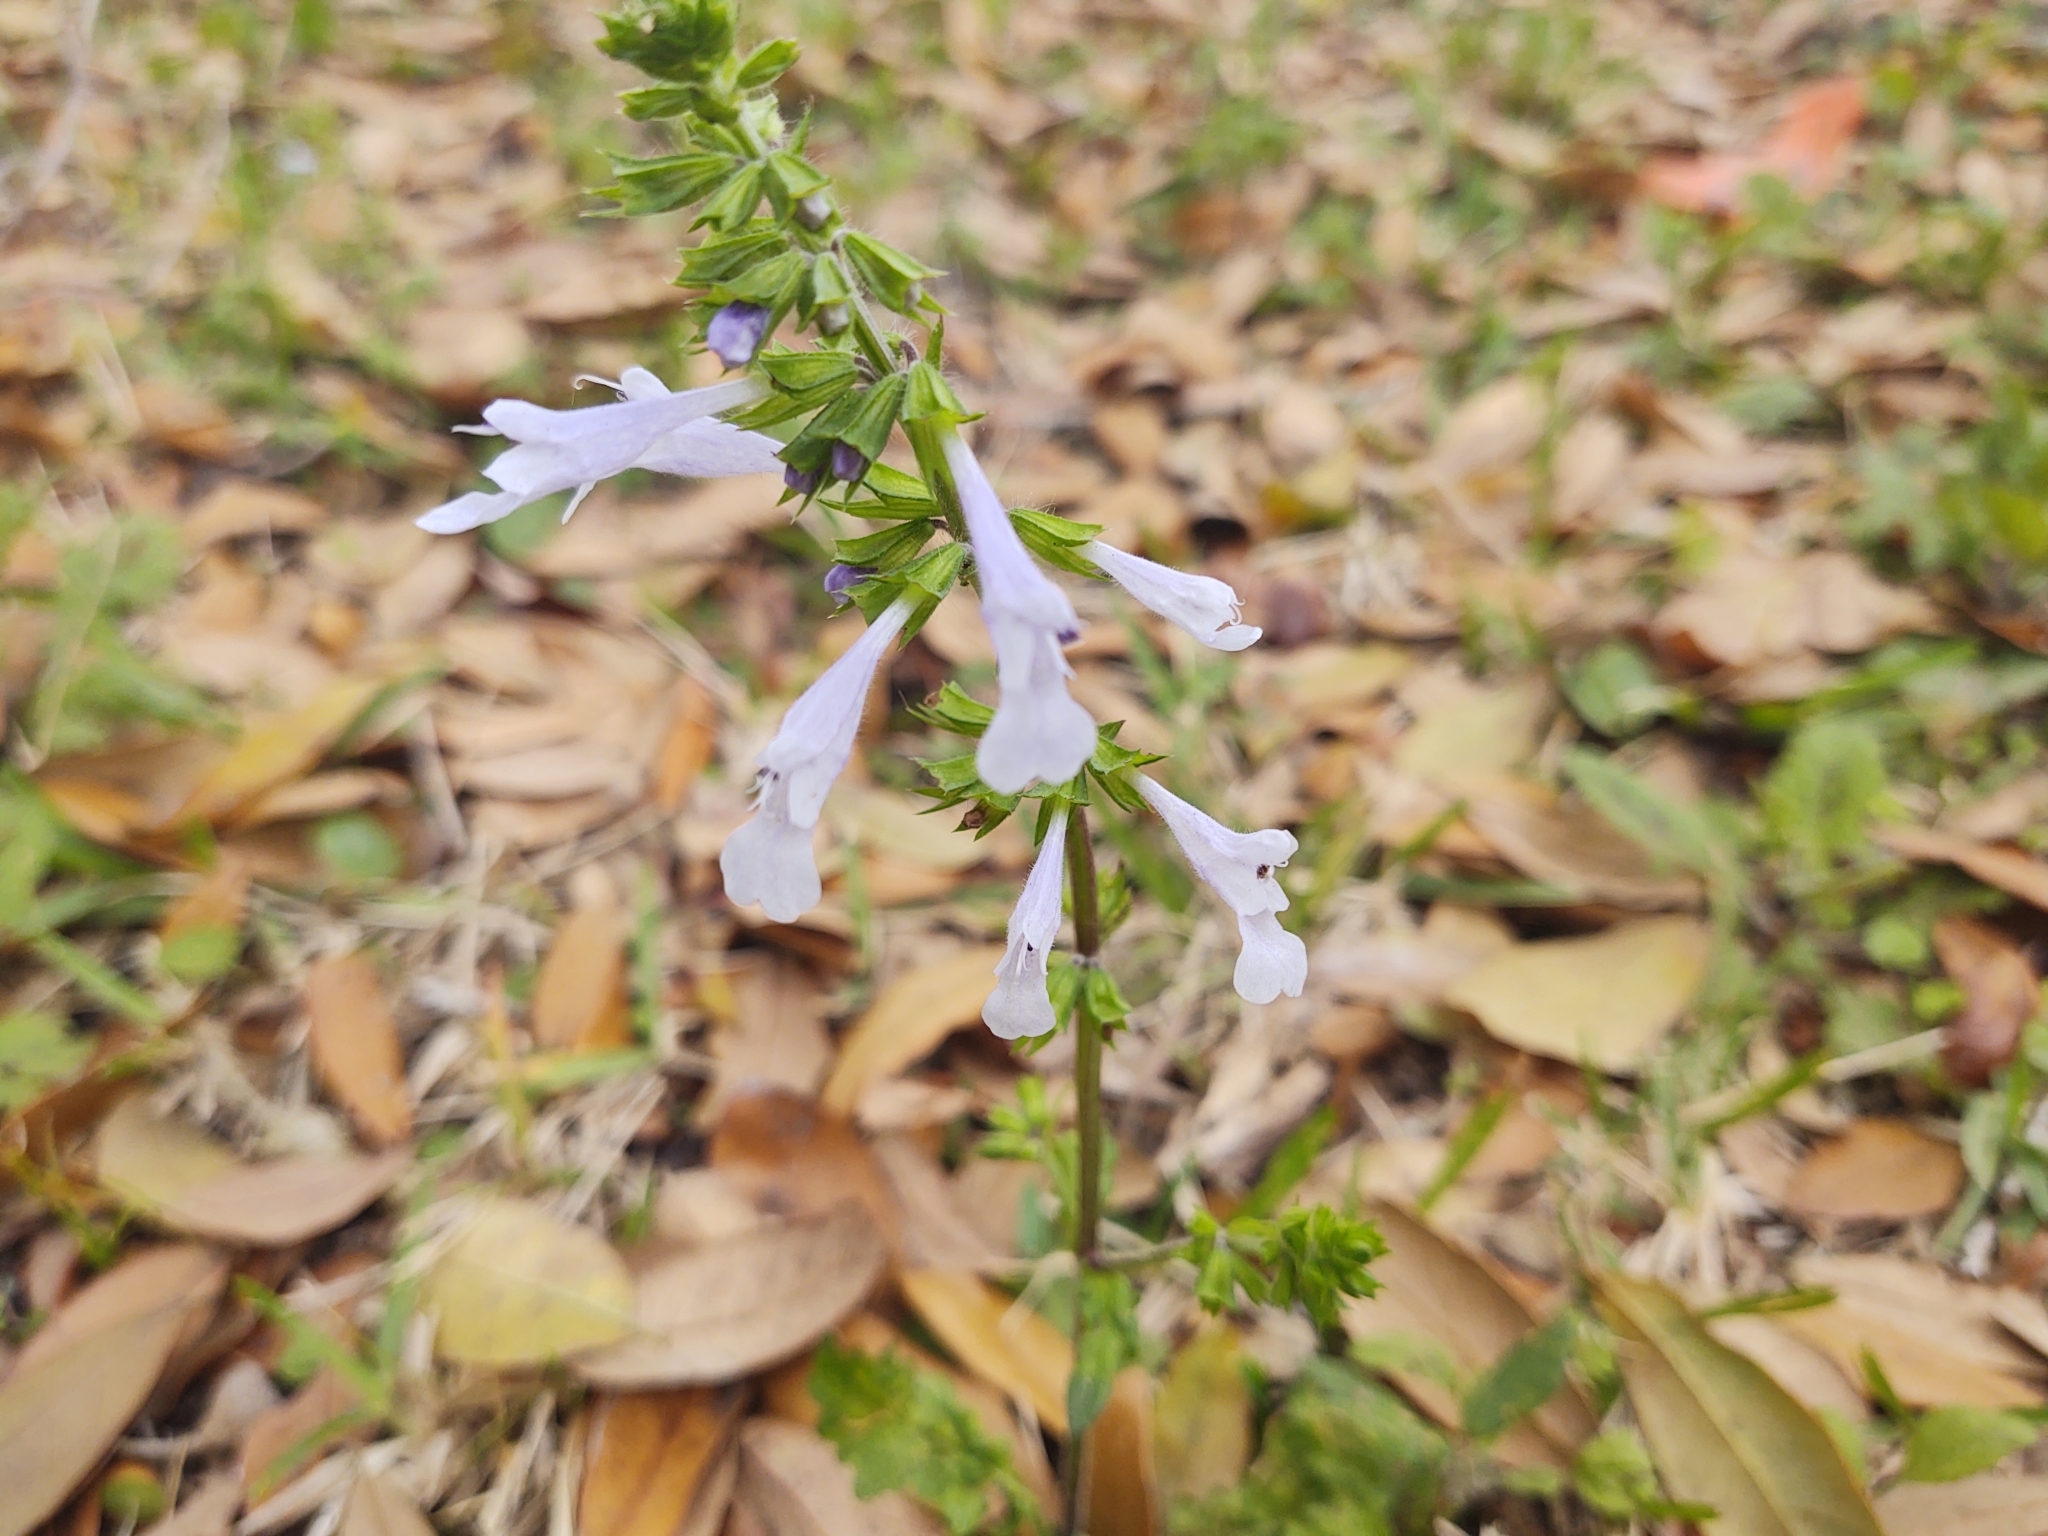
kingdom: Plantae
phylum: Tracheophyta
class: Magnoliopsida
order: Lamiales
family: Lamiaceae
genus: Salvia
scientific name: Salvia lyrata
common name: Cancerweed
